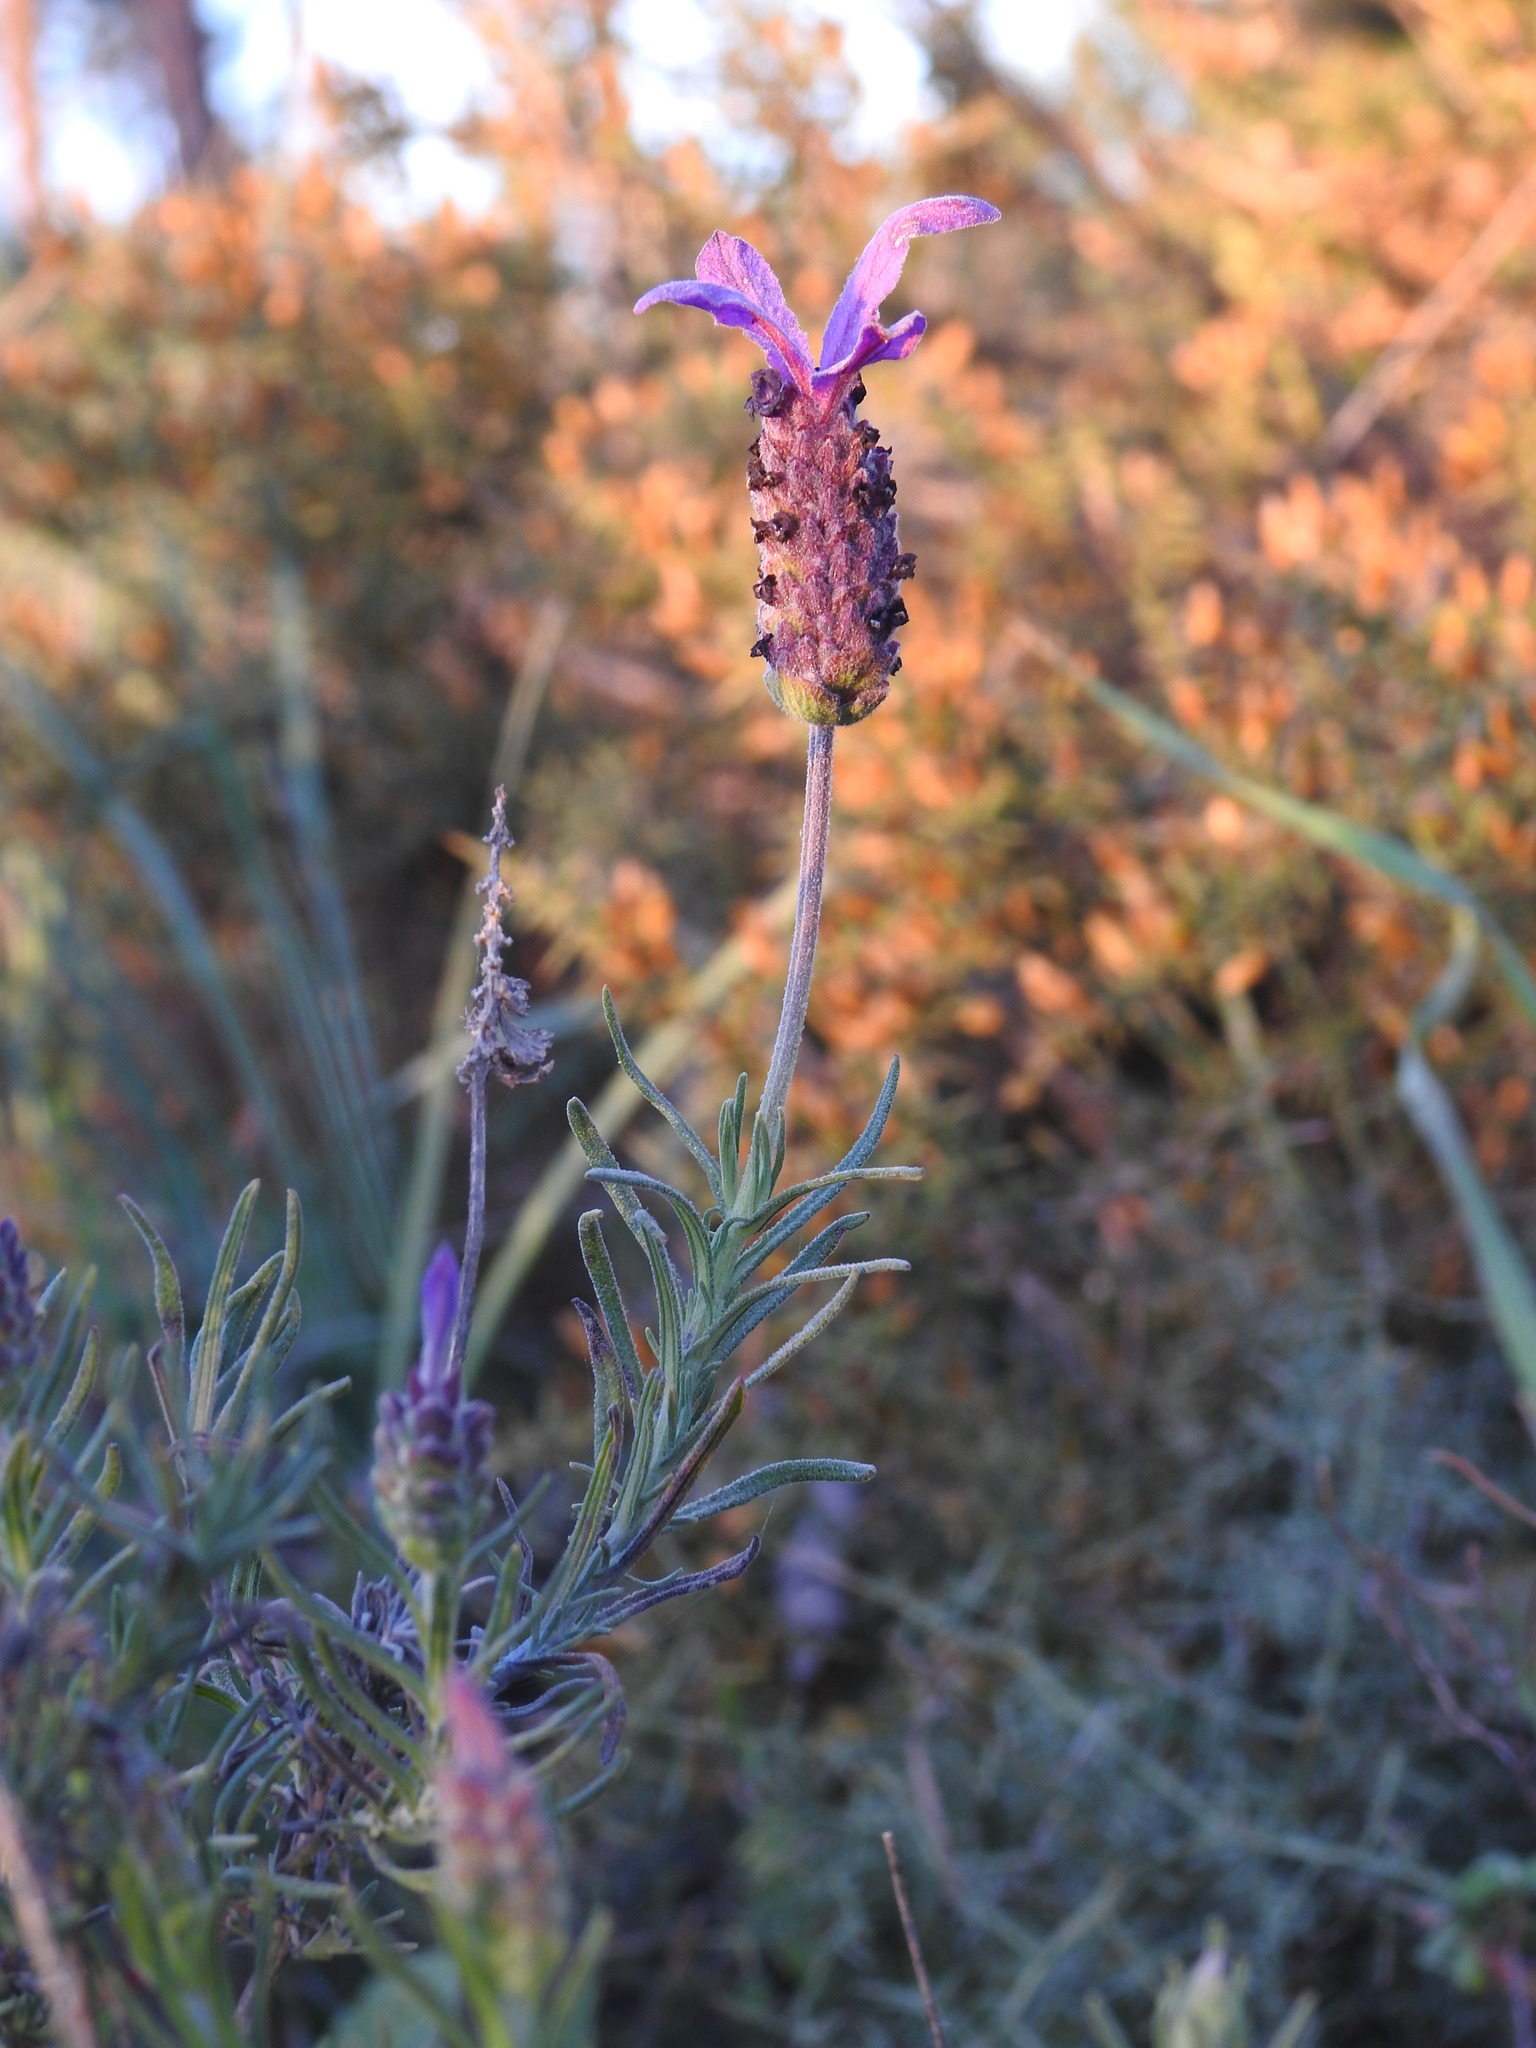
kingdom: Plantae
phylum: Tracheophyta
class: Magnoliopsida
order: Lamiales
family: Lamiaceae
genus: Lavandula
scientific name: Lavandula pedunculata
